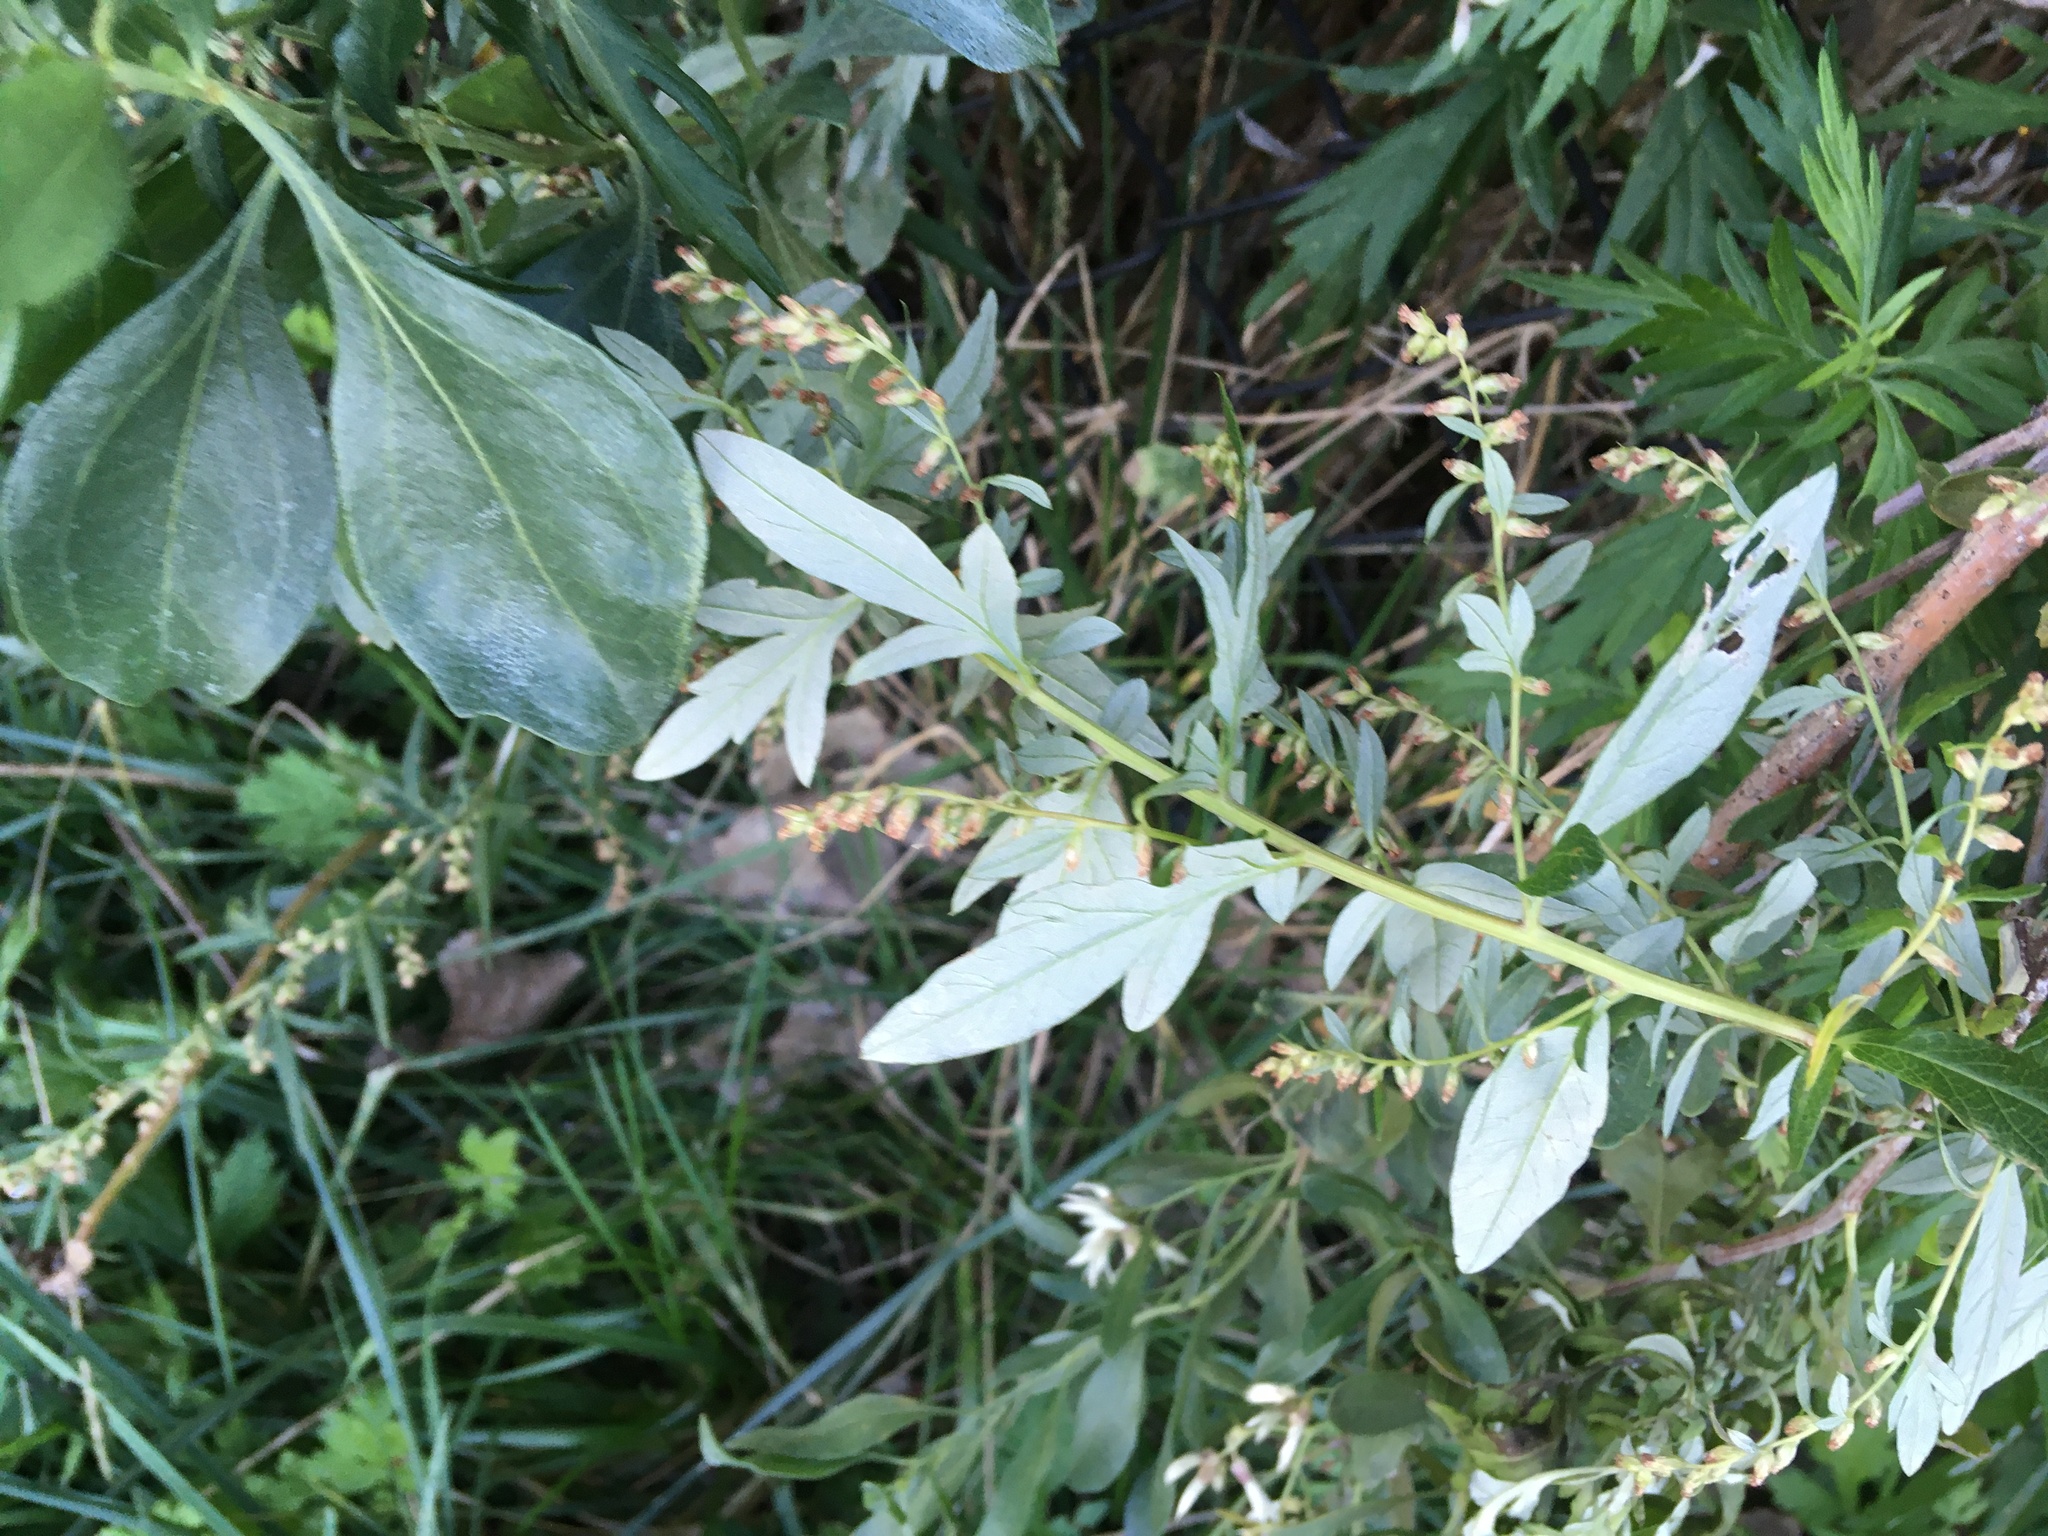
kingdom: Plantae
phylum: Tracheophyta
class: Magnoliopsida
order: Asterales
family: Asteraceae
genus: Artemisia
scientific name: Artemisia vulgaris
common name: Mugwort
